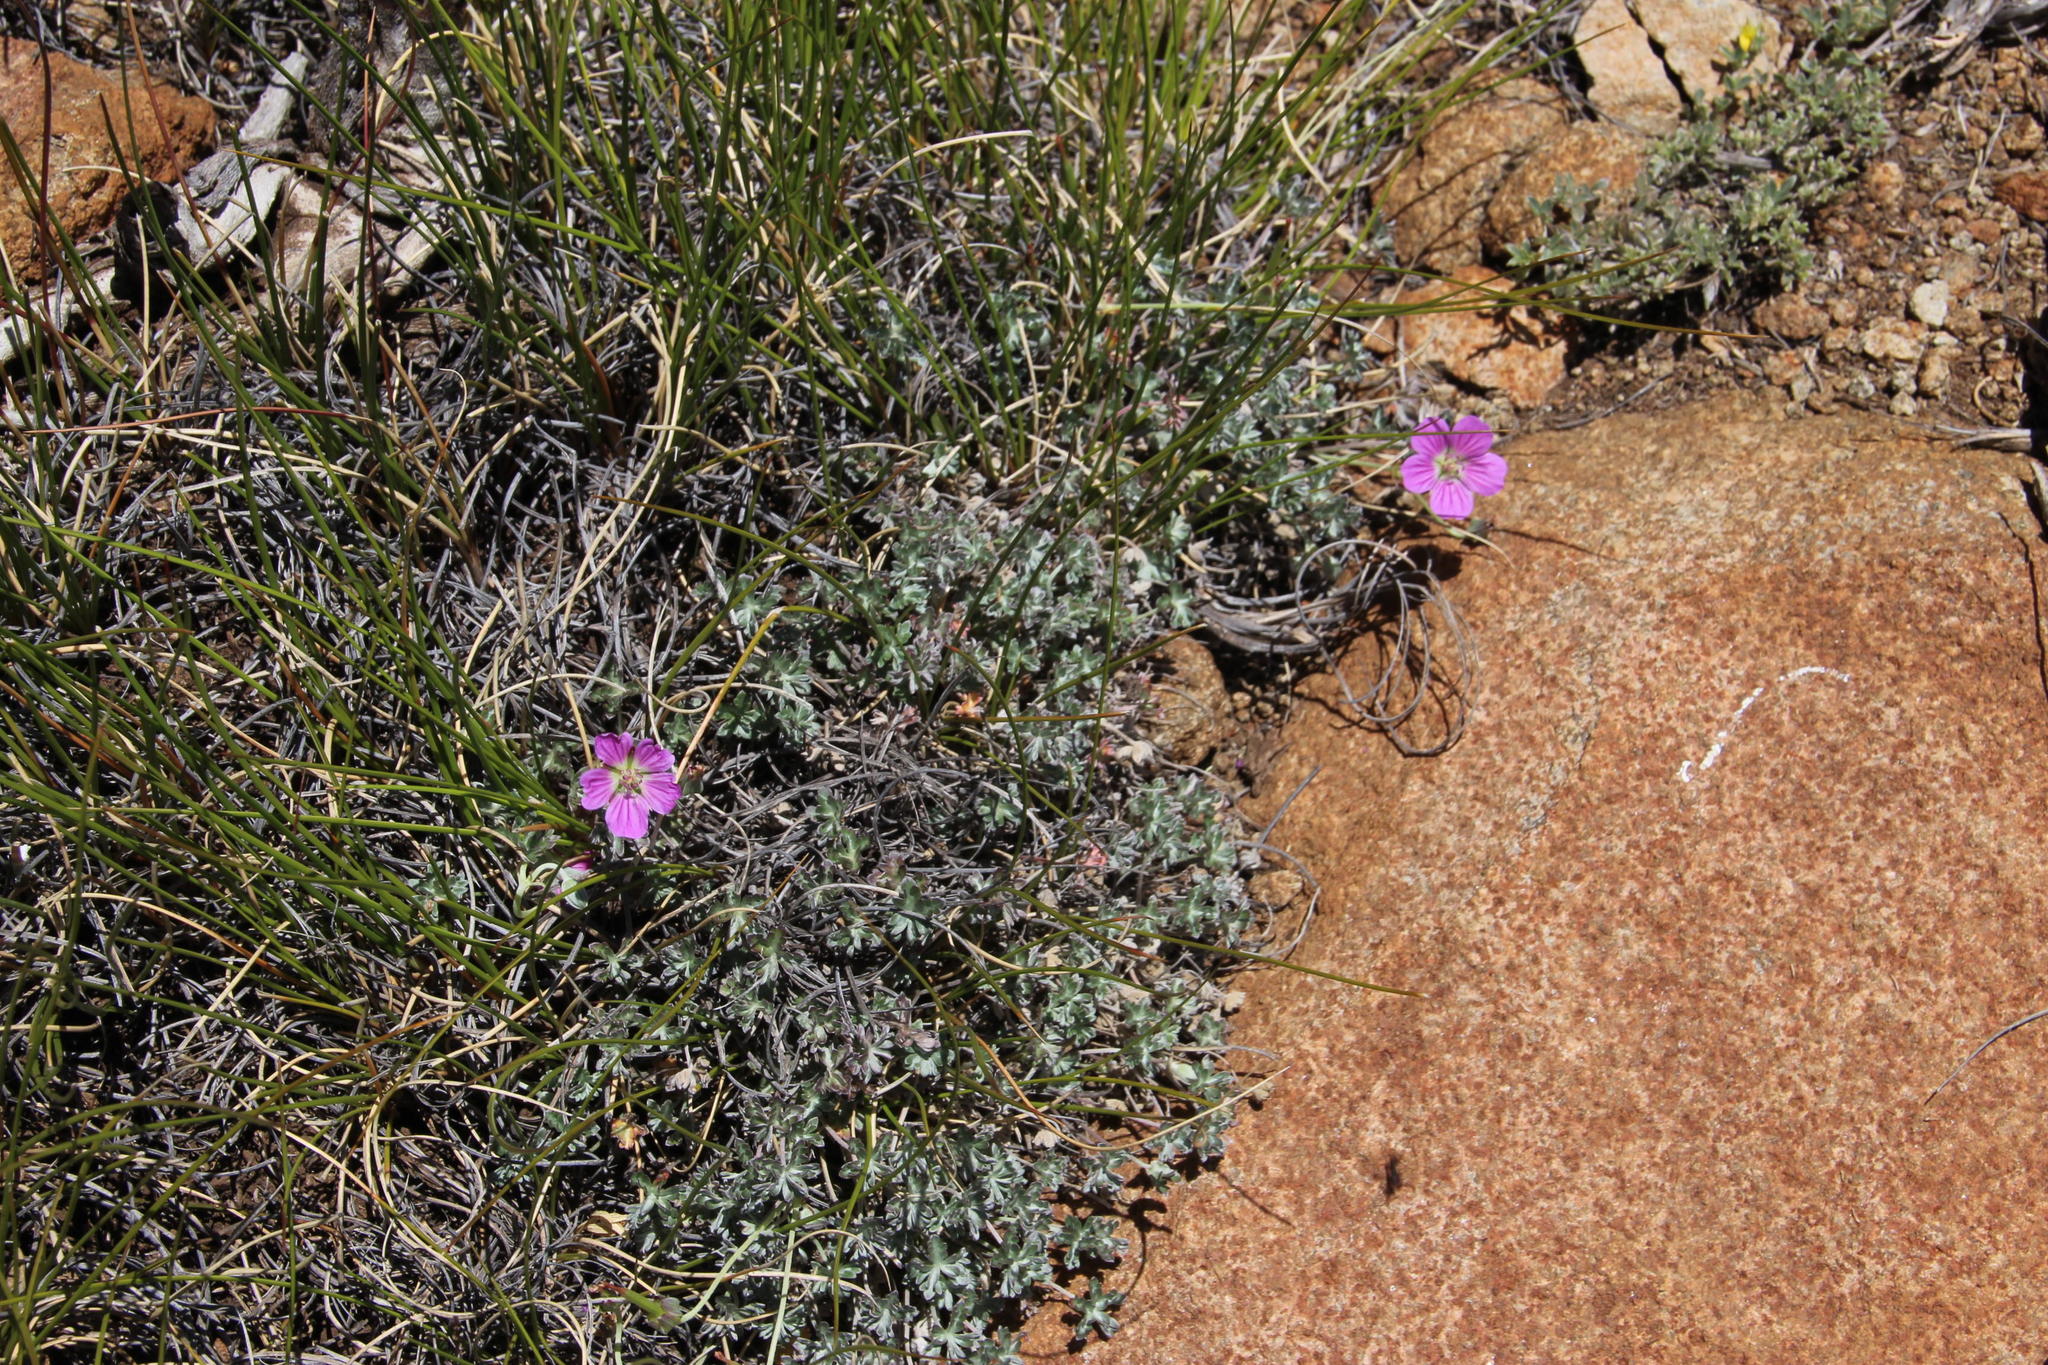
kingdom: Plantae
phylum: Tracheophyta
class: Magnoliopsida
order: Geraniales
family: Geraniaceae
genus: Geranium
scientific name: Geranium harveyi
